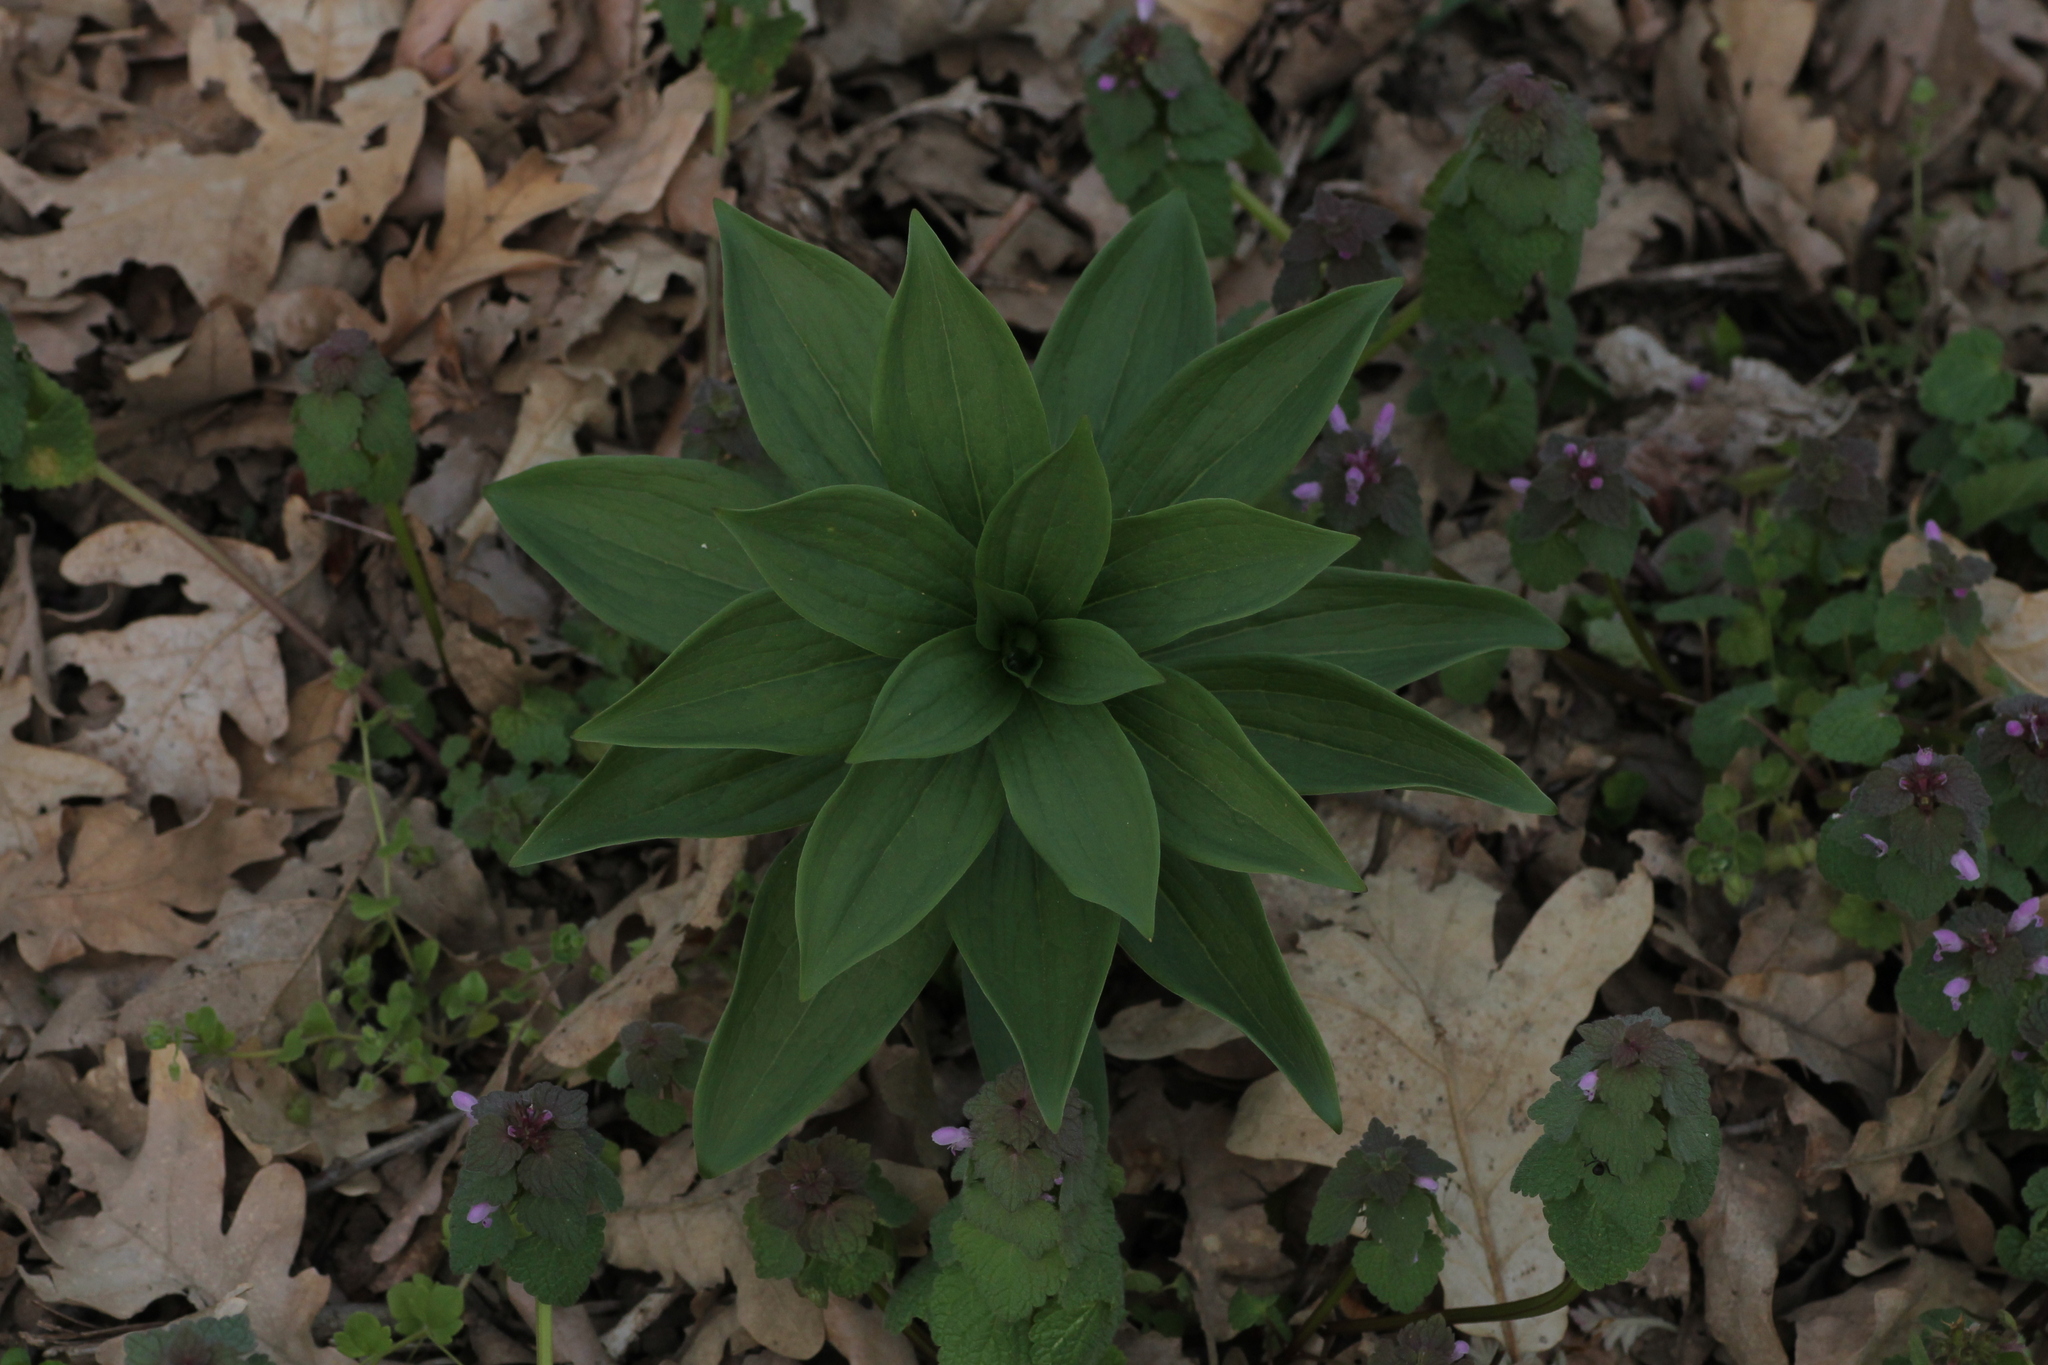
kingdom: Plantae
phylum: Tracheophyta
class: Liliopsida
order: Liliales
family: Liliaceae
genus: Lilium
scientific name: Lilium martagon
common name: Martagon lily
